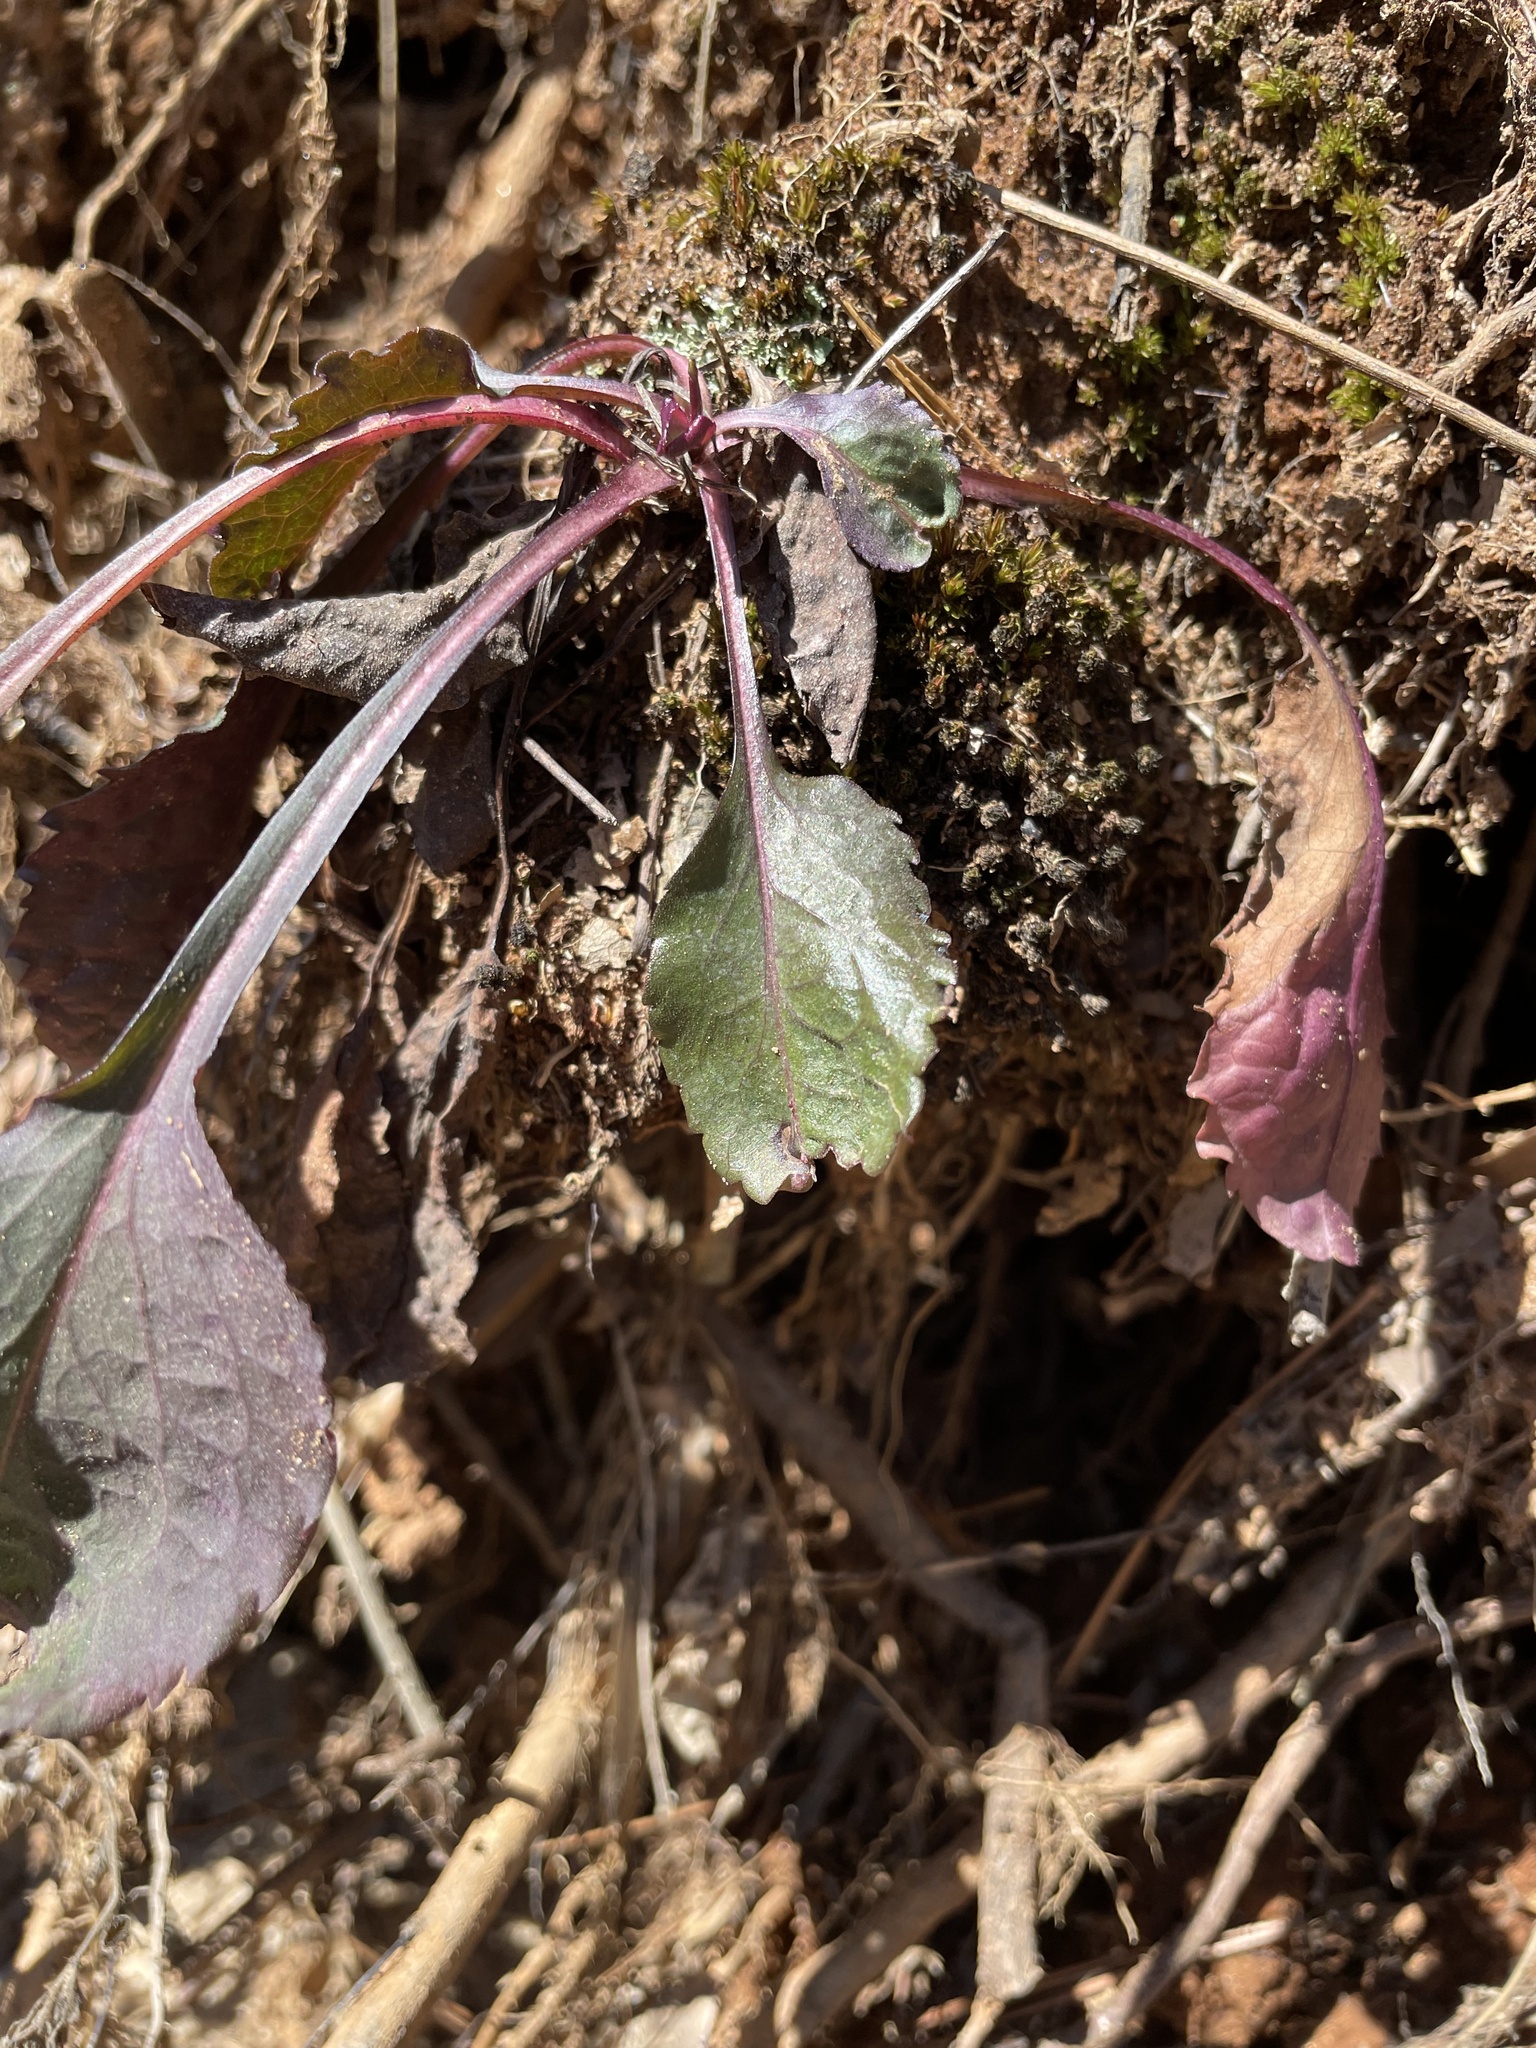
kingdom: Plantae
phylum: Tracheophyta
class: Magnoliopsida
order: Asterales
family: Asteraceae
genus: Packera
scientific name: Packera obovata
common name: Round-leaf ragwort
